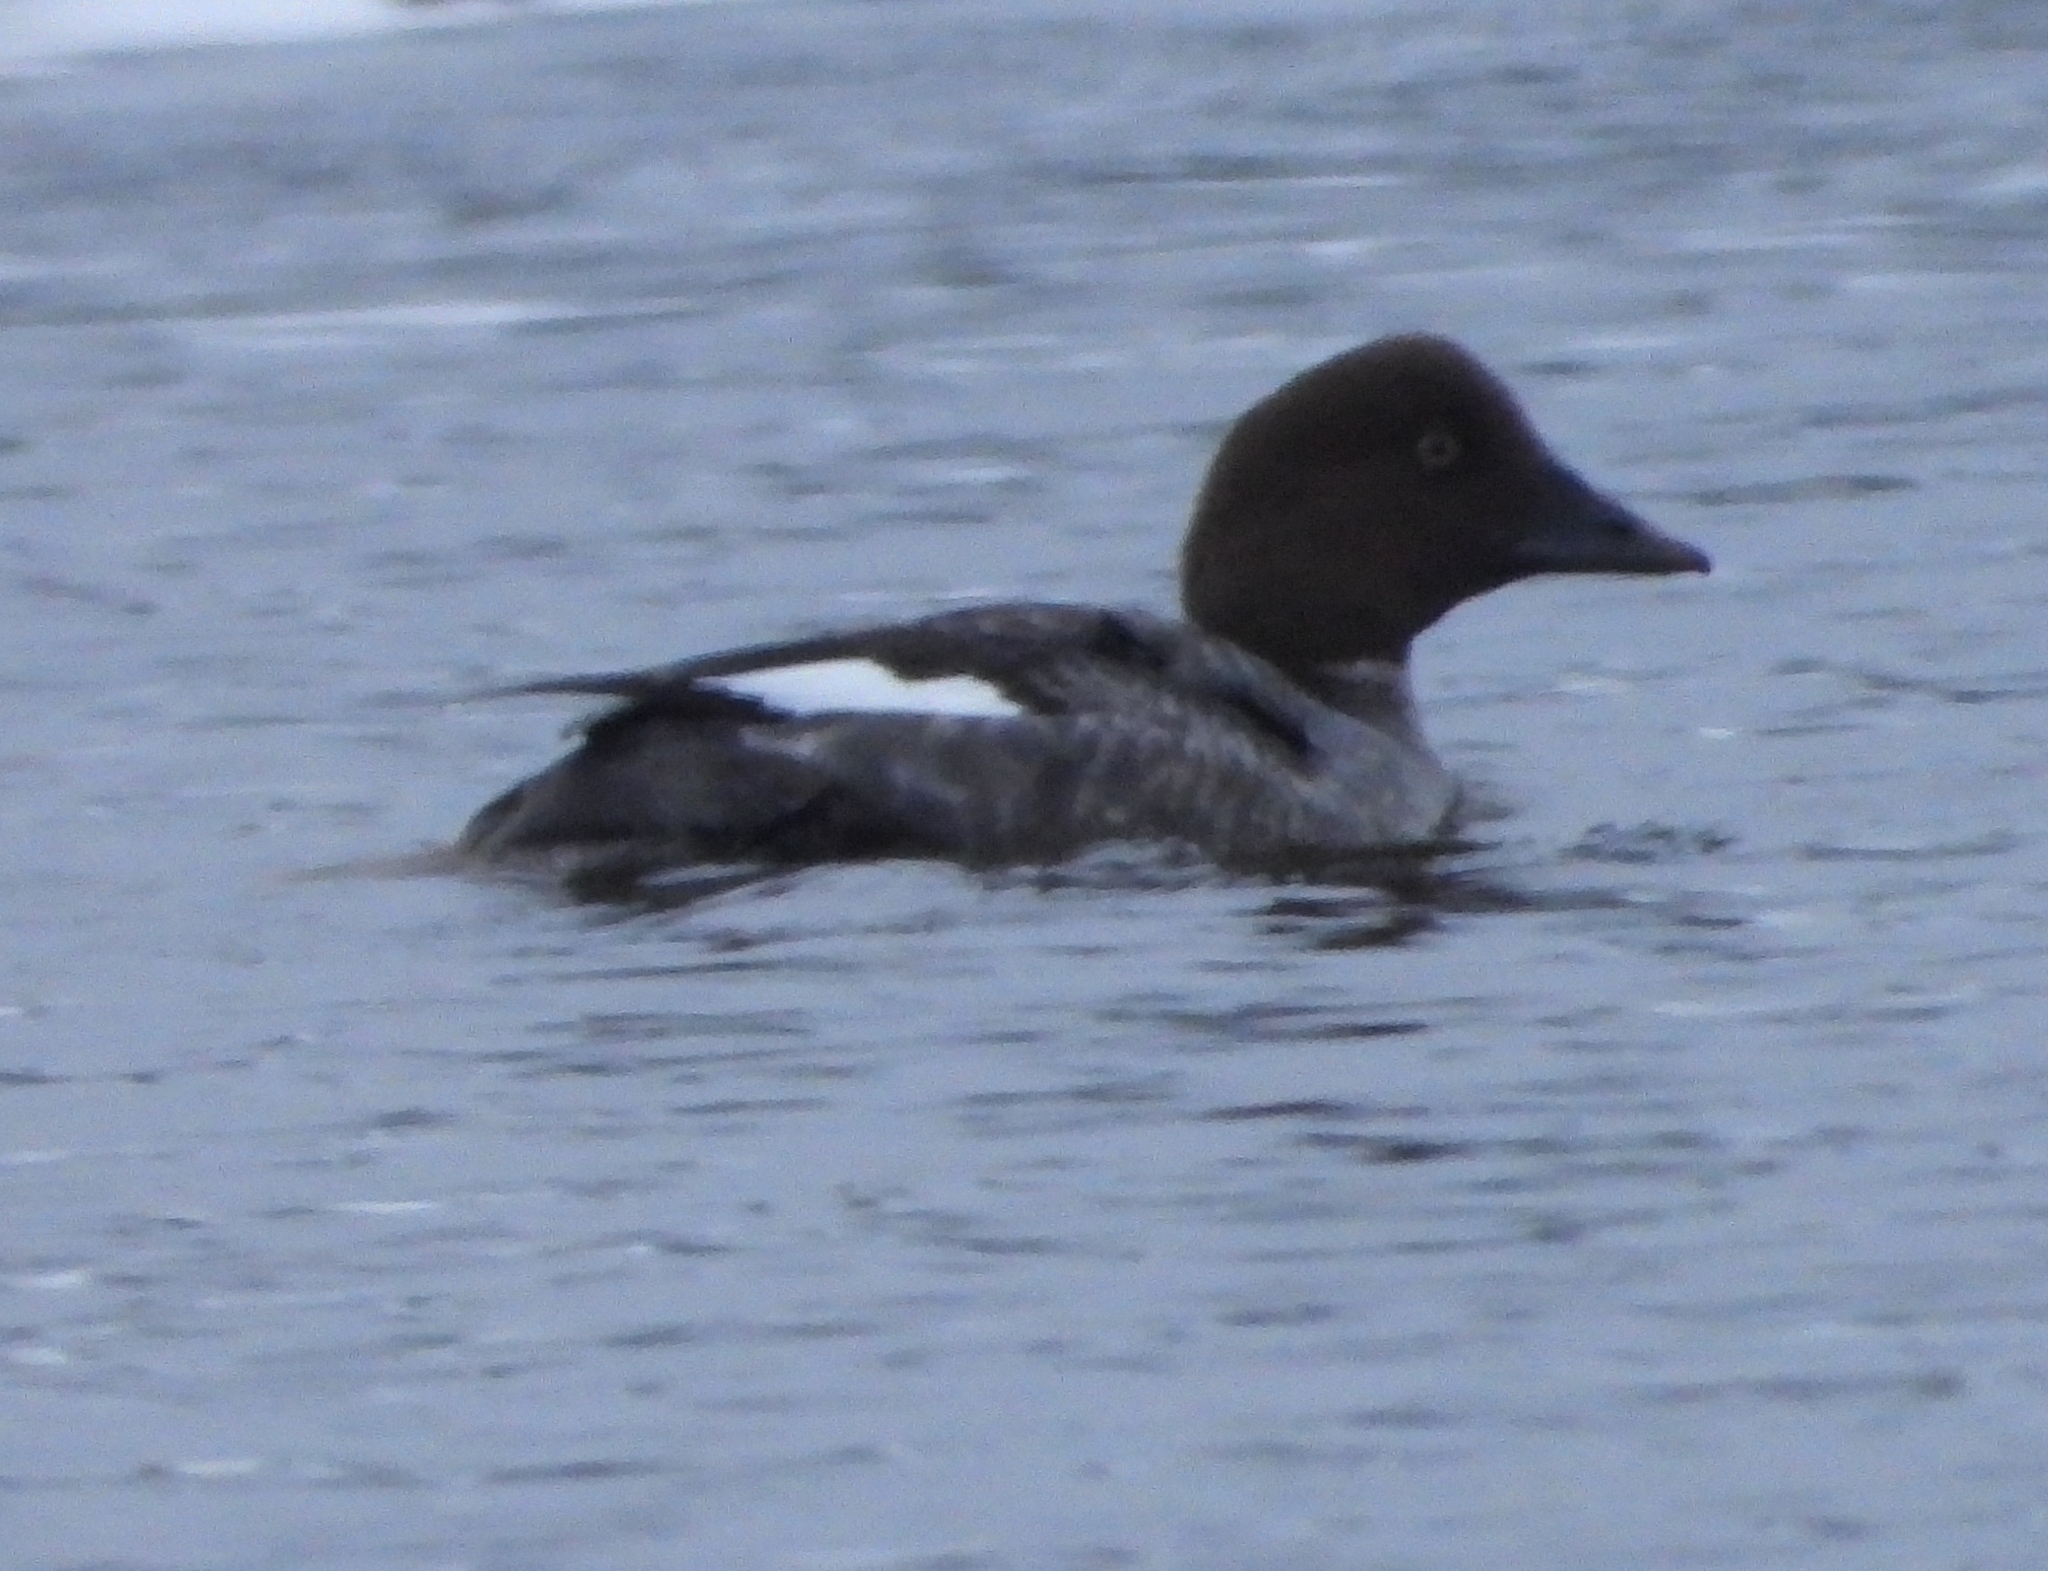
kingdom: Animalia
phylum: Chordata
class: Aves
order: Anseriformes
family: Anatidae
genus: Bucephala
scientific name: Bucephala clangula
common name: Common goldeneye
